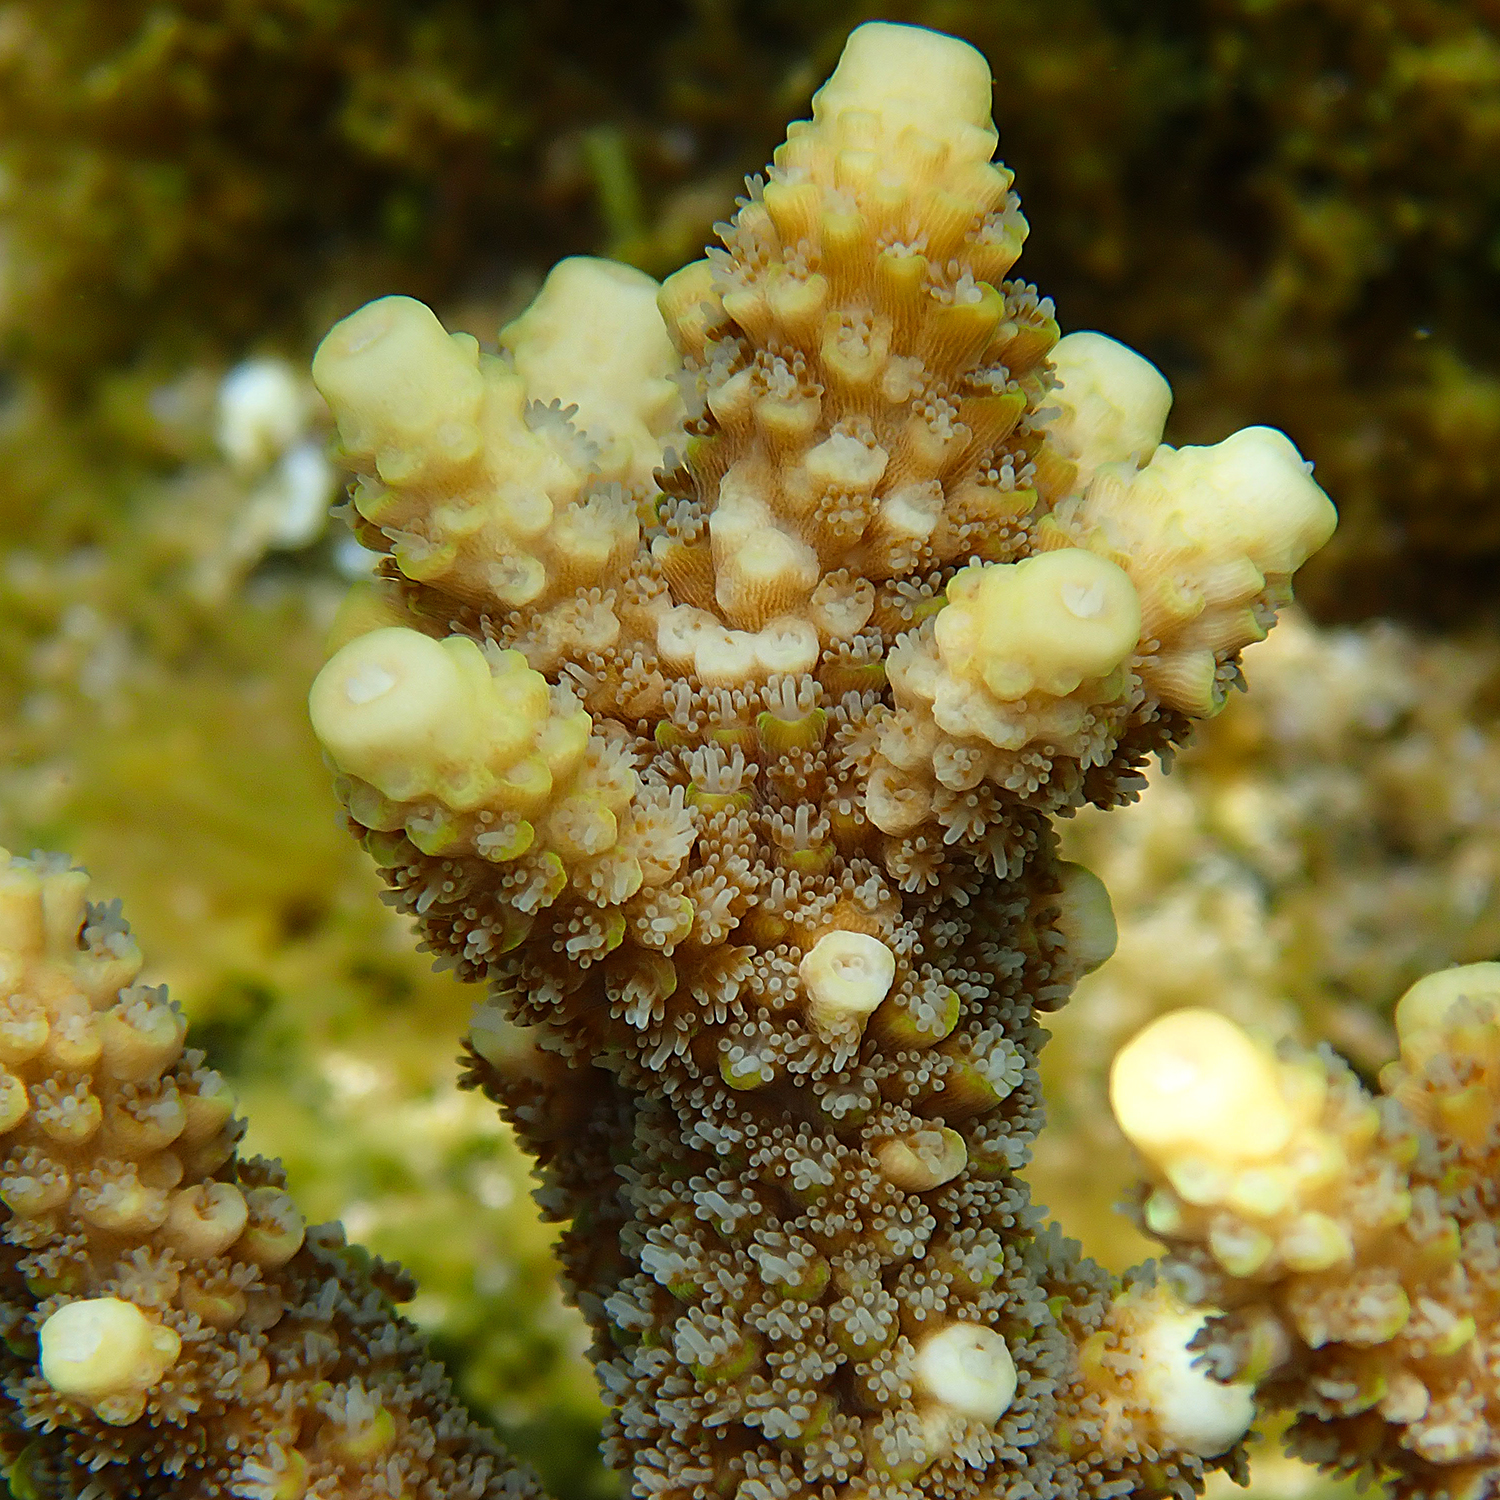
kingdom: Animalia
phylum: Cnidaria
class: Anthozoa
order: Scleractinia
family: Acroporidae
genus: Acropora
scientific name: Acropora solitaryensis
